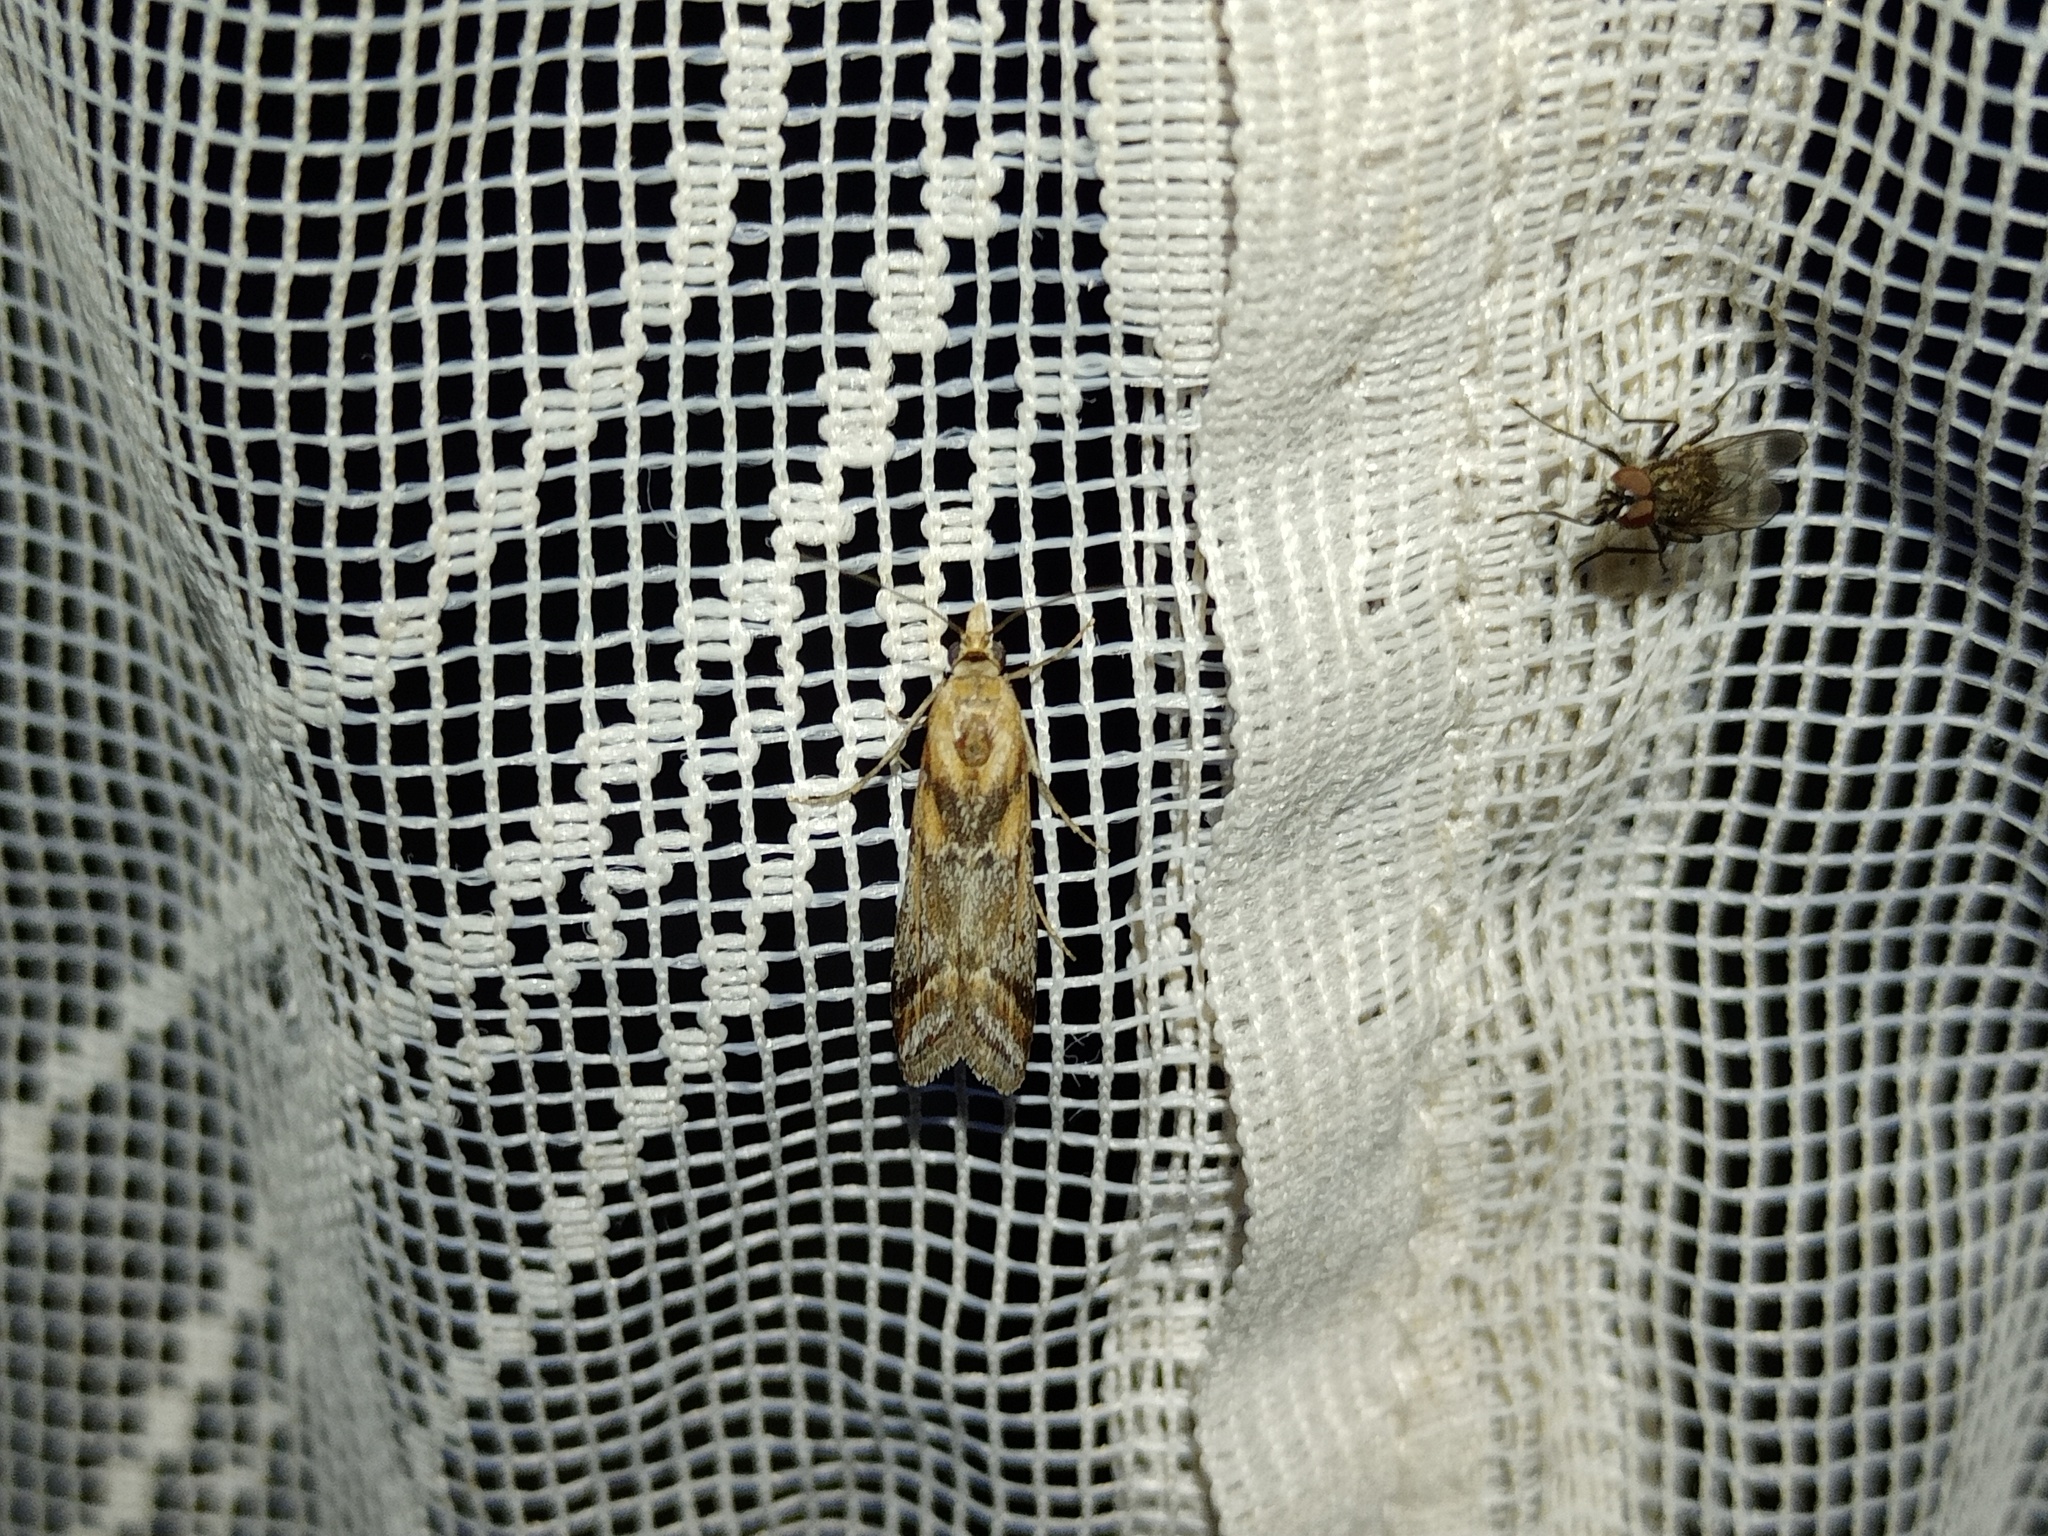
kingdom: Animalia
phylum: Arthropoda
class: Insecta
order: Lepidoptera
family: Pyralidae
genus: Ancylosis
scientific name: Ancylosis cinnamomella
